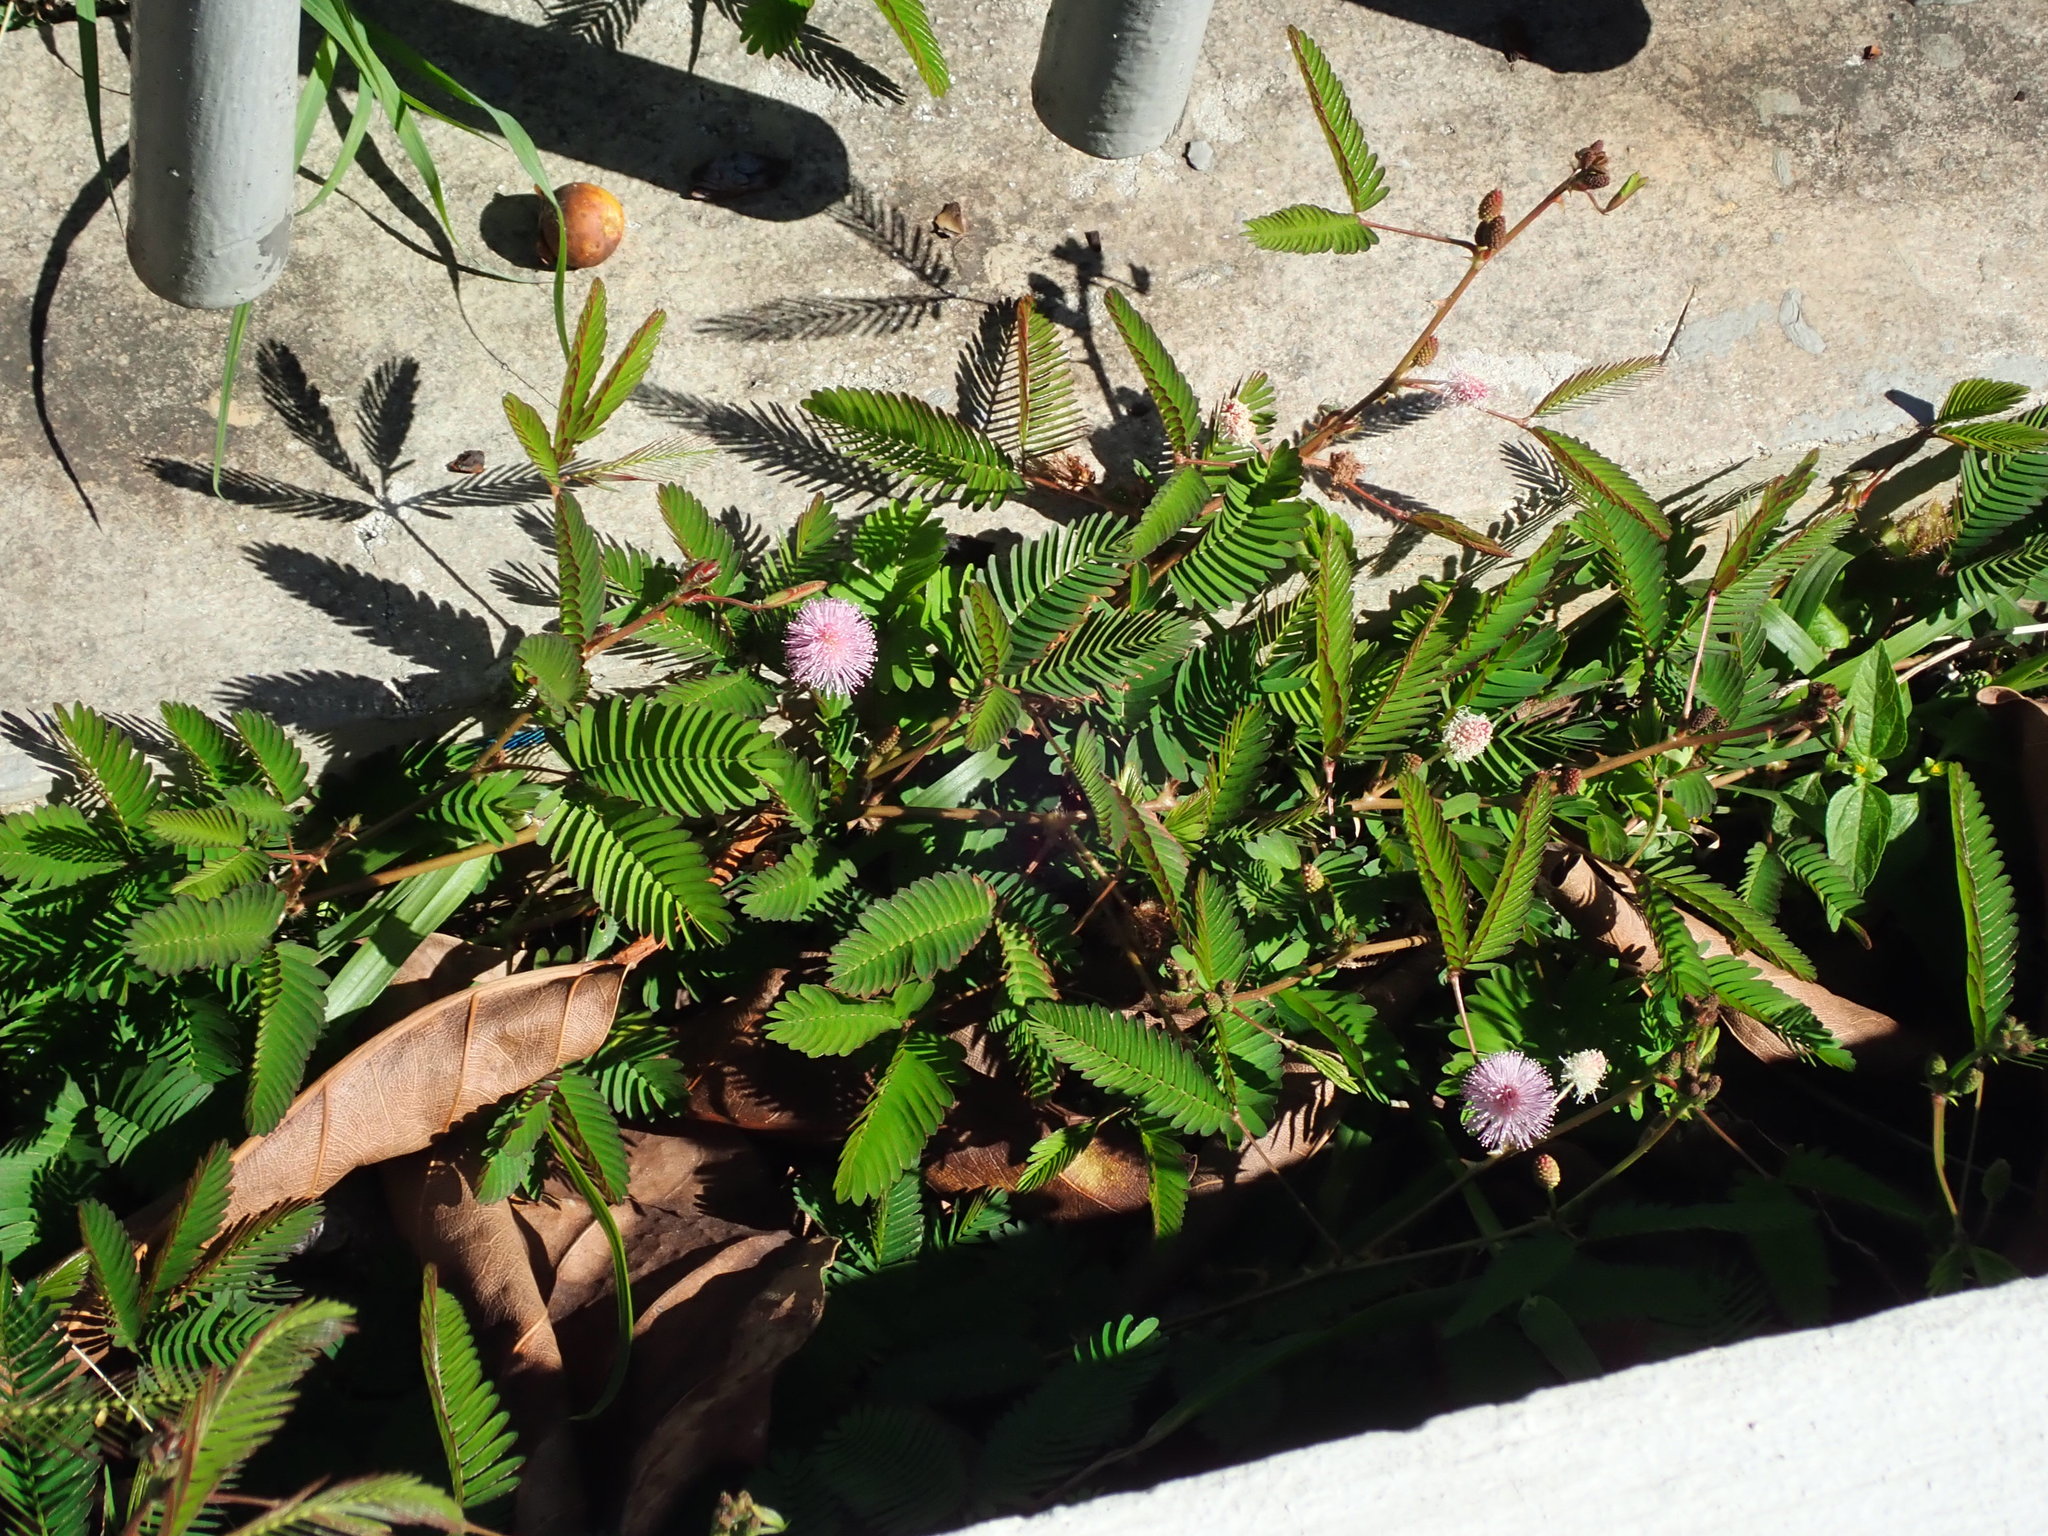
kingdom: Plantae
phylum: Tracheophyta
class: Magnoliopsida
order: Fabales
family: Fabaceae
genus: Mimosa
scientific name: Mimosa pudica
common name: Sensitive plant
